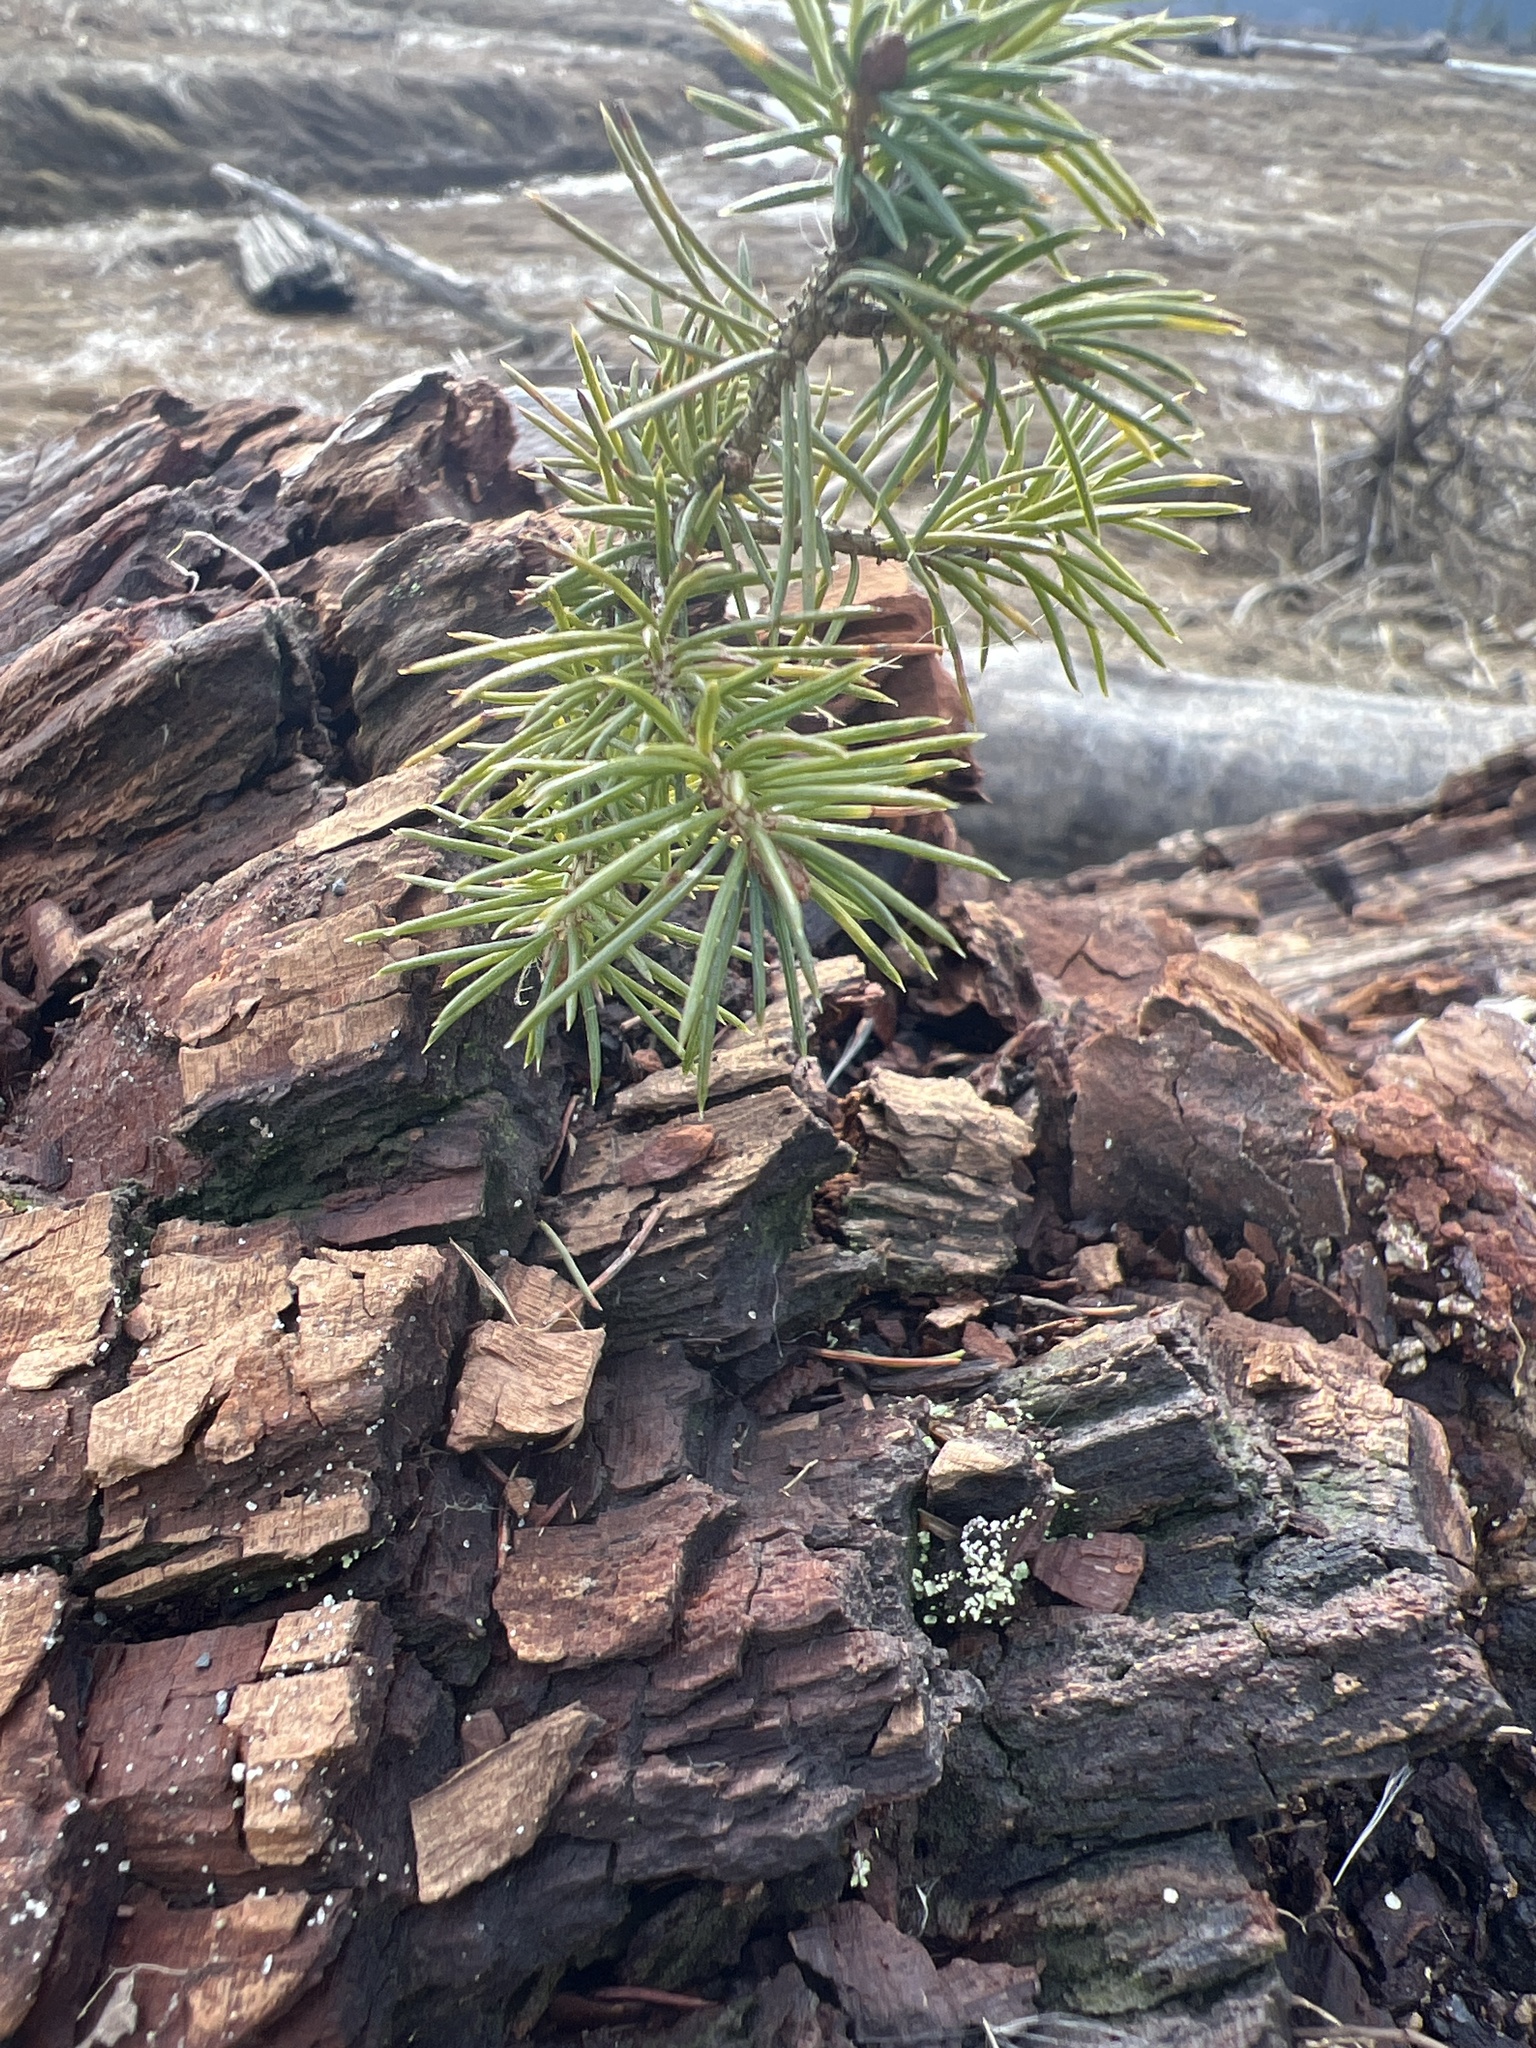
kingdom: Plantae
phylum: Tracheophyta
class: Pinopsida
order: Pinales
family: Pinaceae
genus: Picea
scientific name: Picea sitchensis
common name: Sitka spruce
